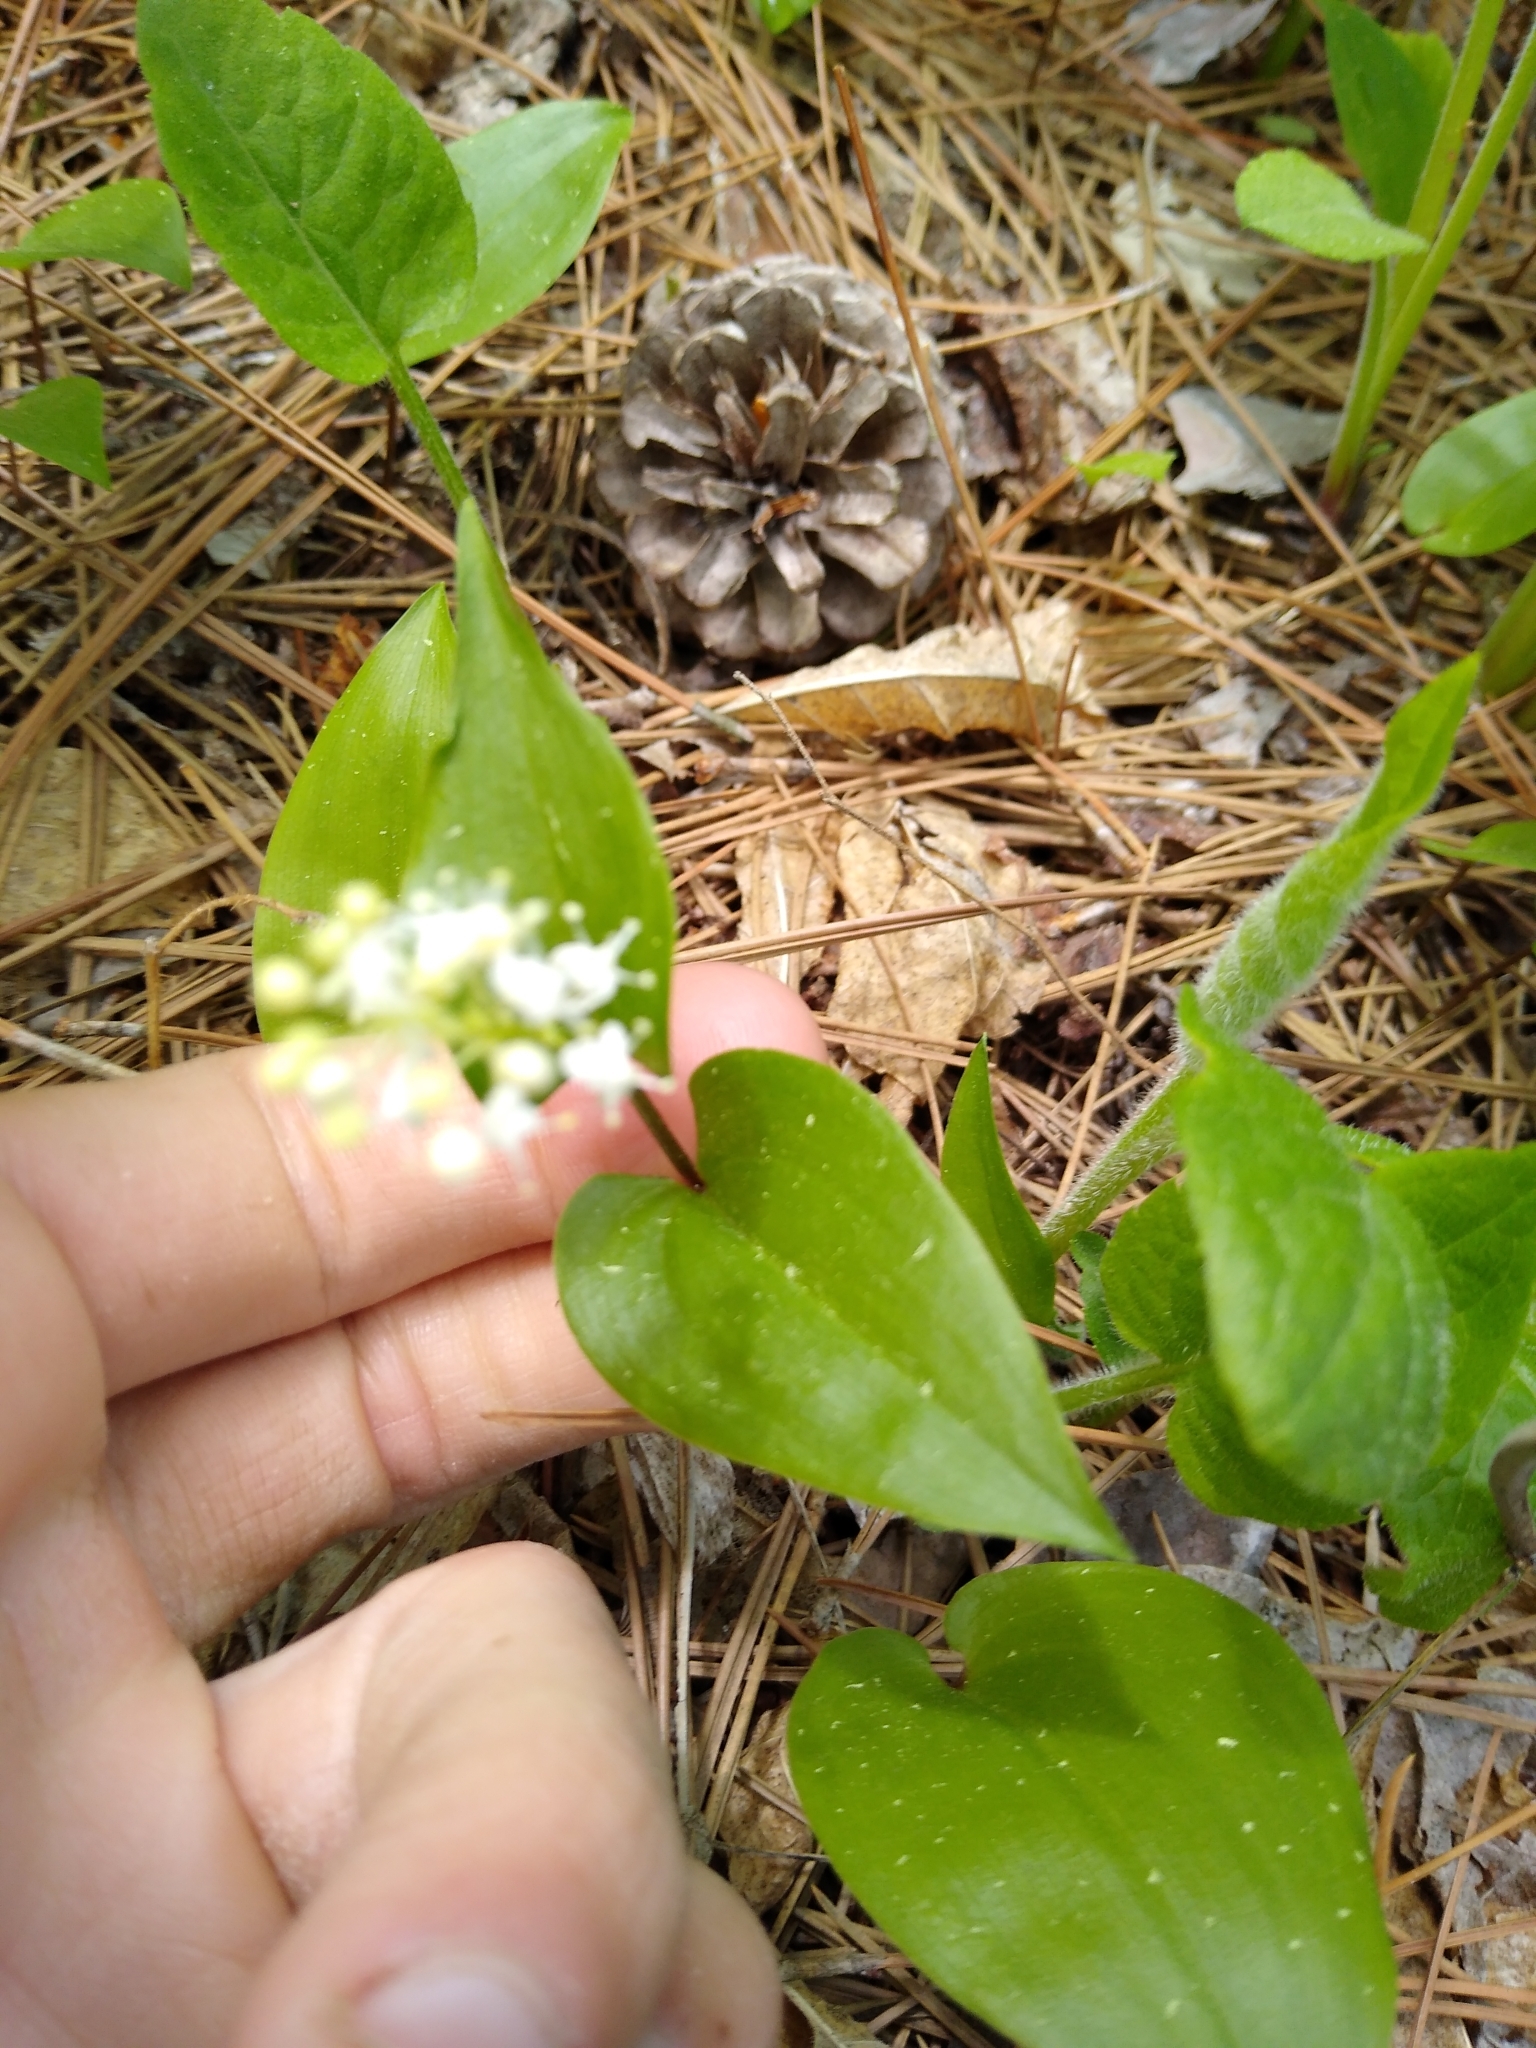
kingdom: Plantae
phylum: Tracheophyta
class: Liliopsida
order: Asparagales
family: Asparagaceae
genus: Maianthemum
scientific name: Maianthemum canadense
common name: False lily-of-the-valley
